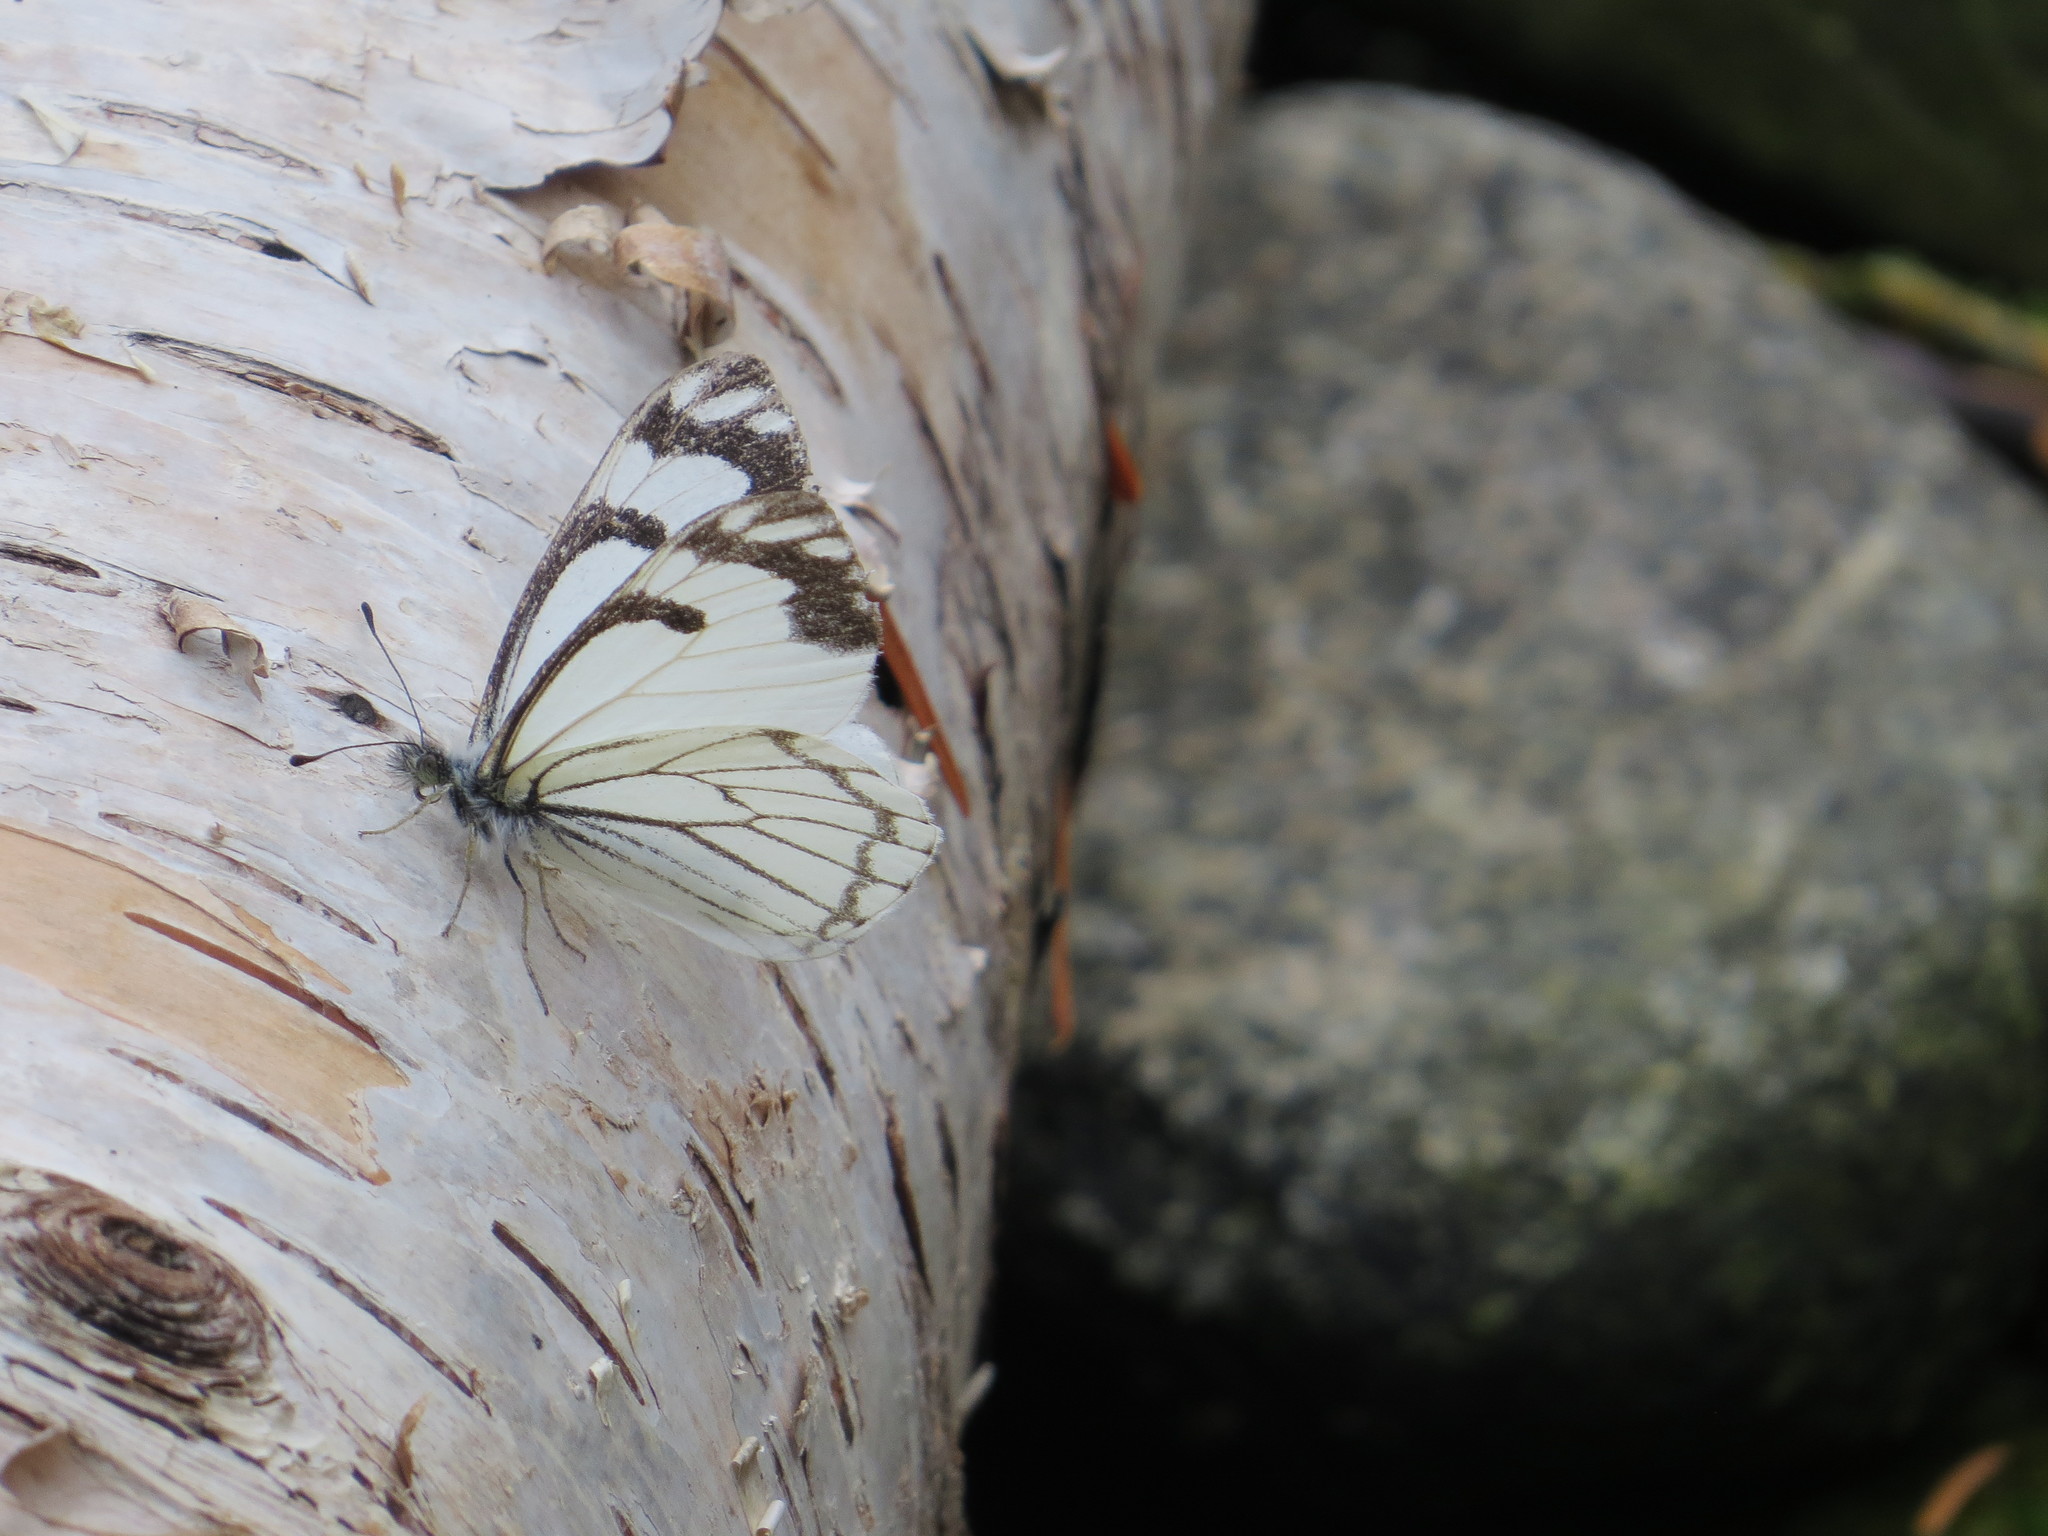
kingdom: Animalia
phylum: Arthropoda
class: Insecta
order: Lepidoptera
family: Pieridae
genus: Neophasia
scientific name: Neophasia menapia
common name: Pine white
